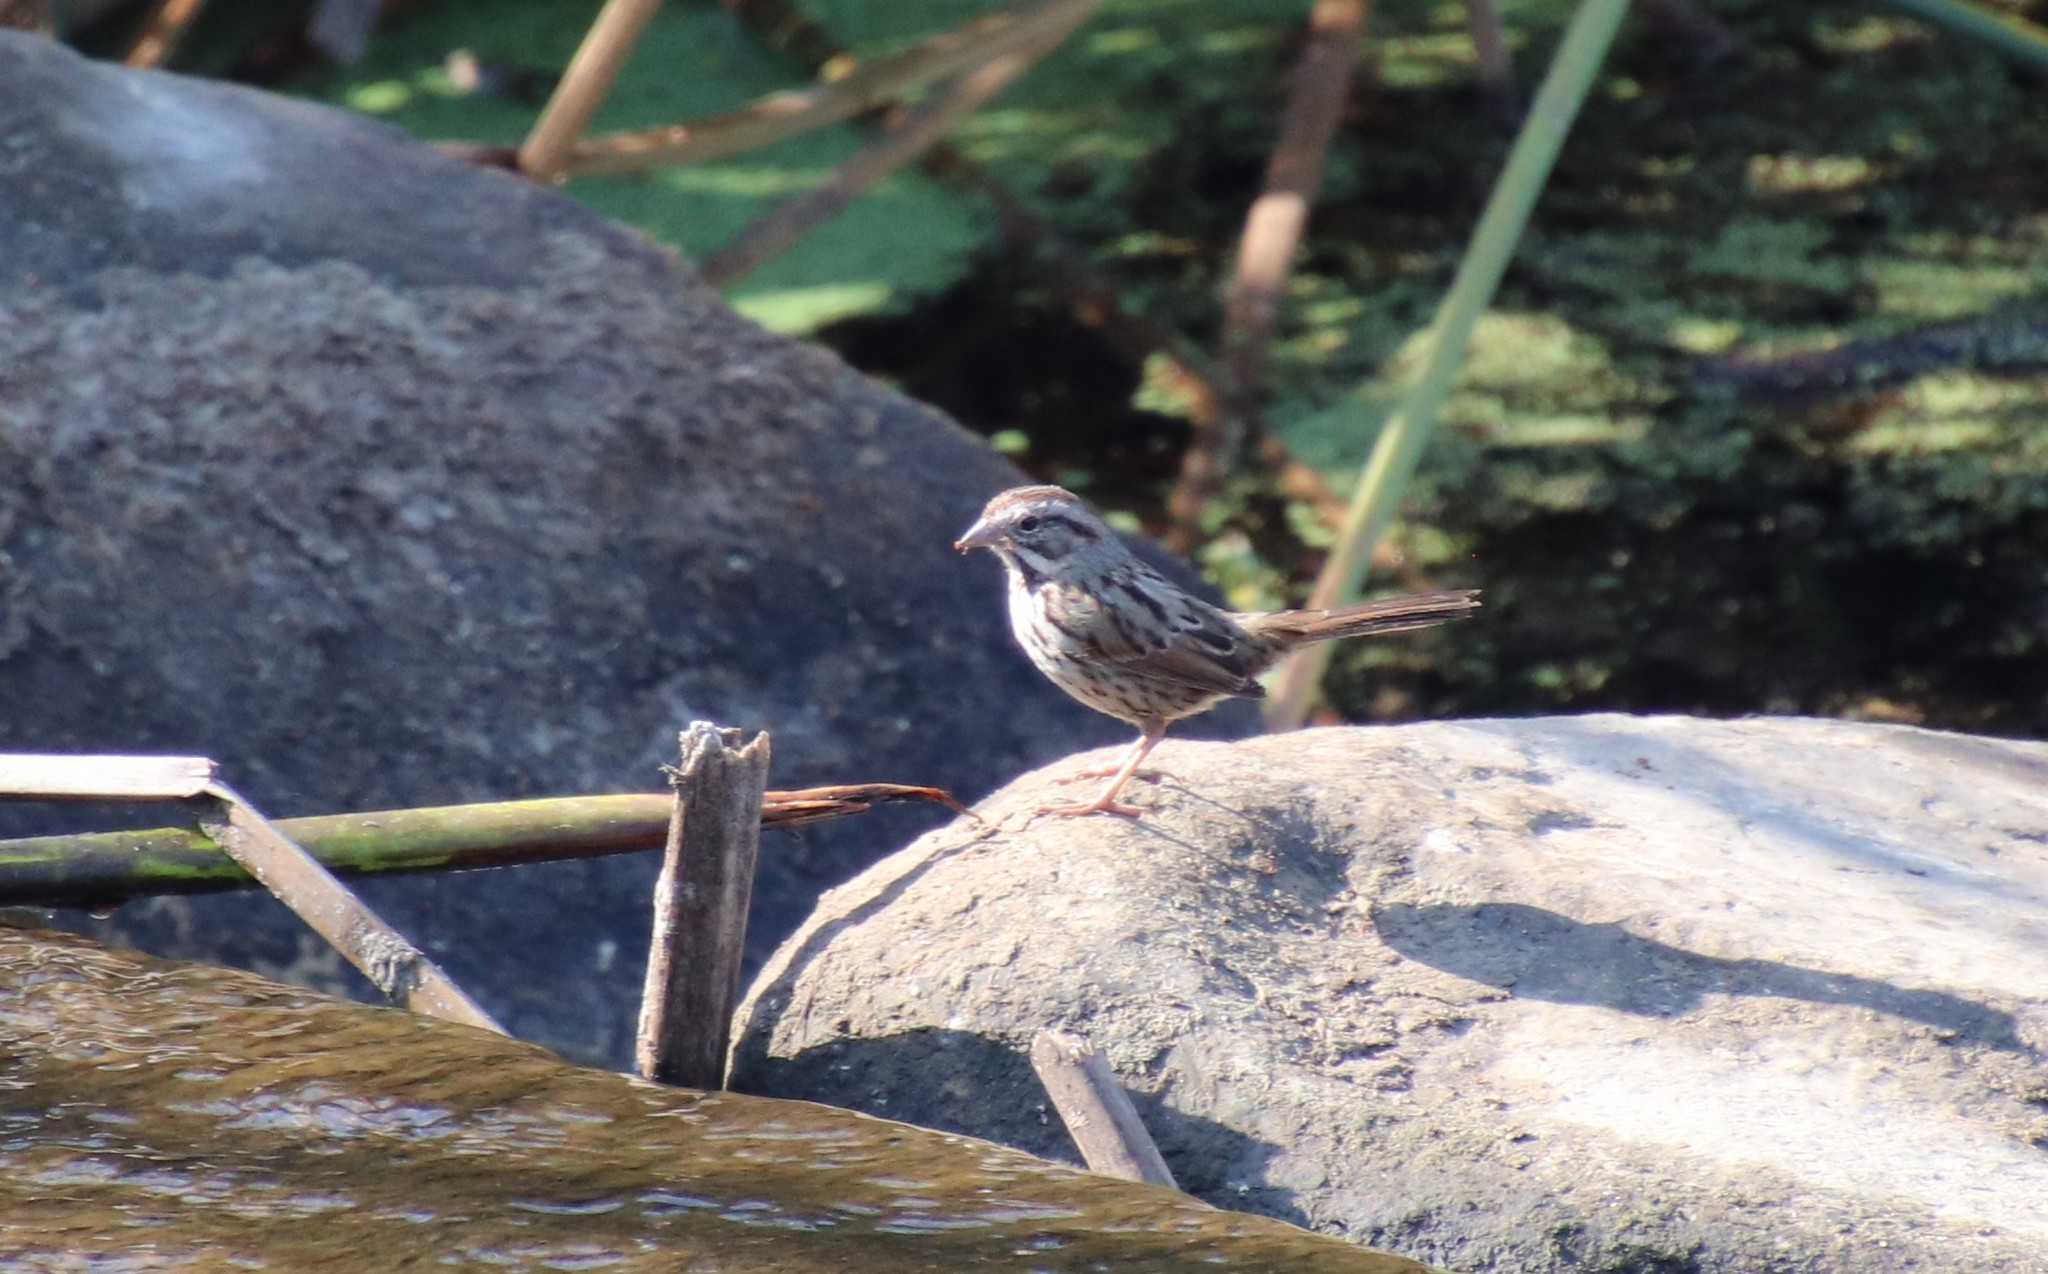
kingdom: Animalia
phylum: Chordata
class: Aves
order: Passeriformes
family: Passerellidae
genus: Melospiza
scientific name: Melospiza melodia
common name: Song sparrow
